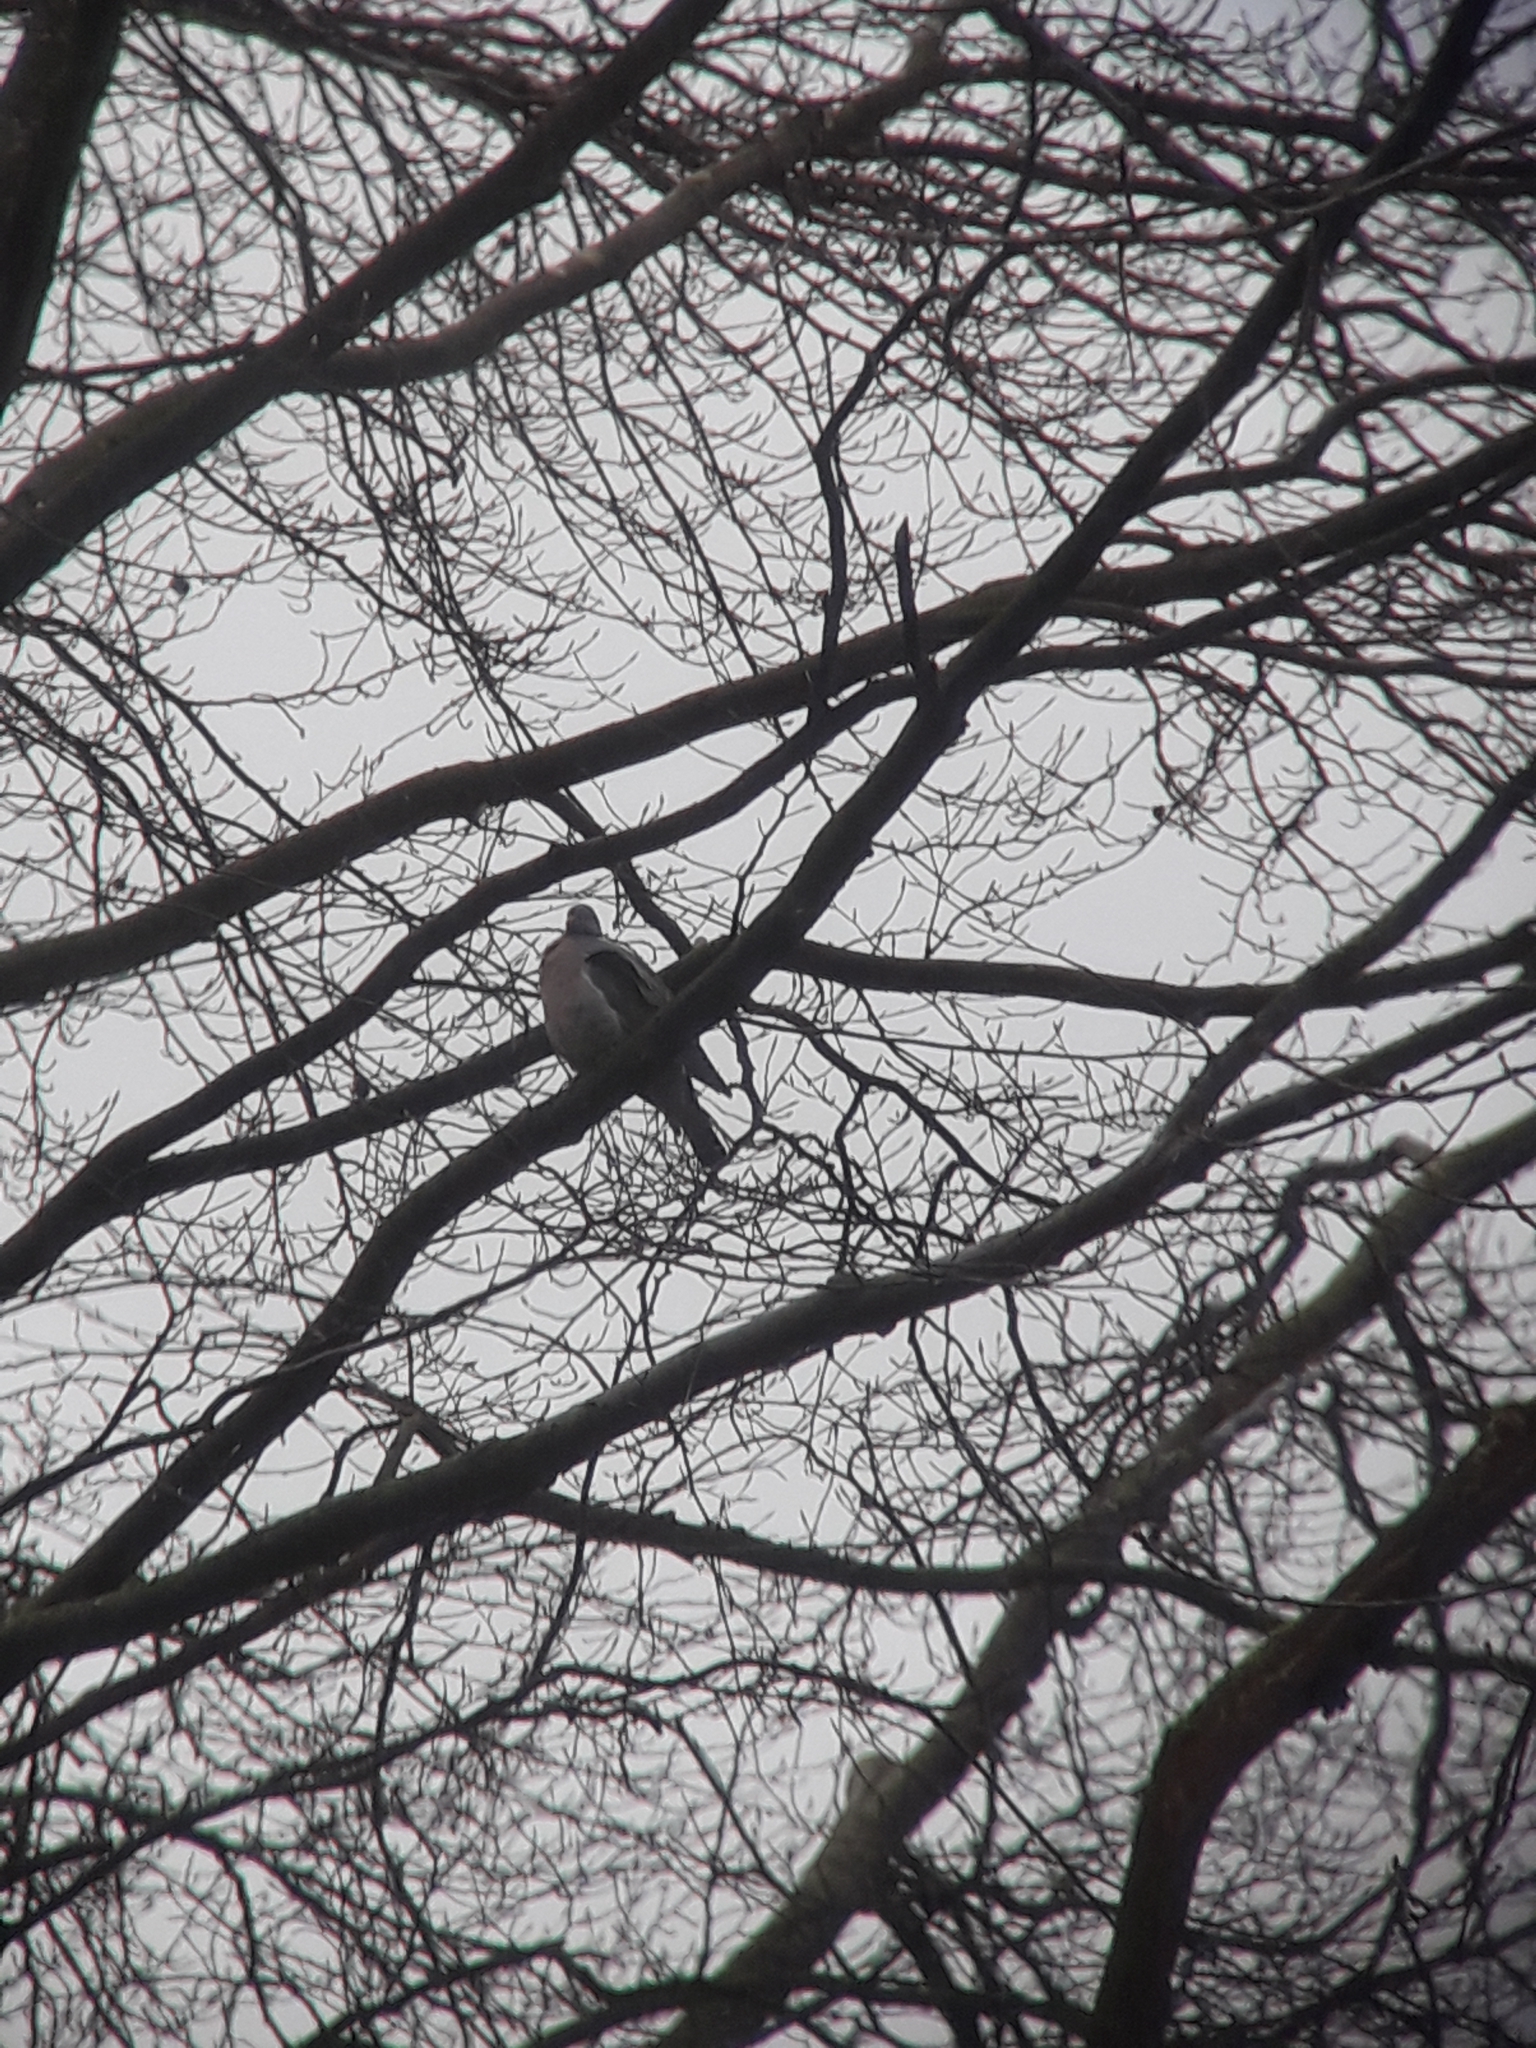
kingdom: Animalia
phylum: Chordata
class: Aves
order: Columbiformes
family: Columbidae
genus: Columba
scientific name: Columba palumbus
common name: Common wood pigeon
